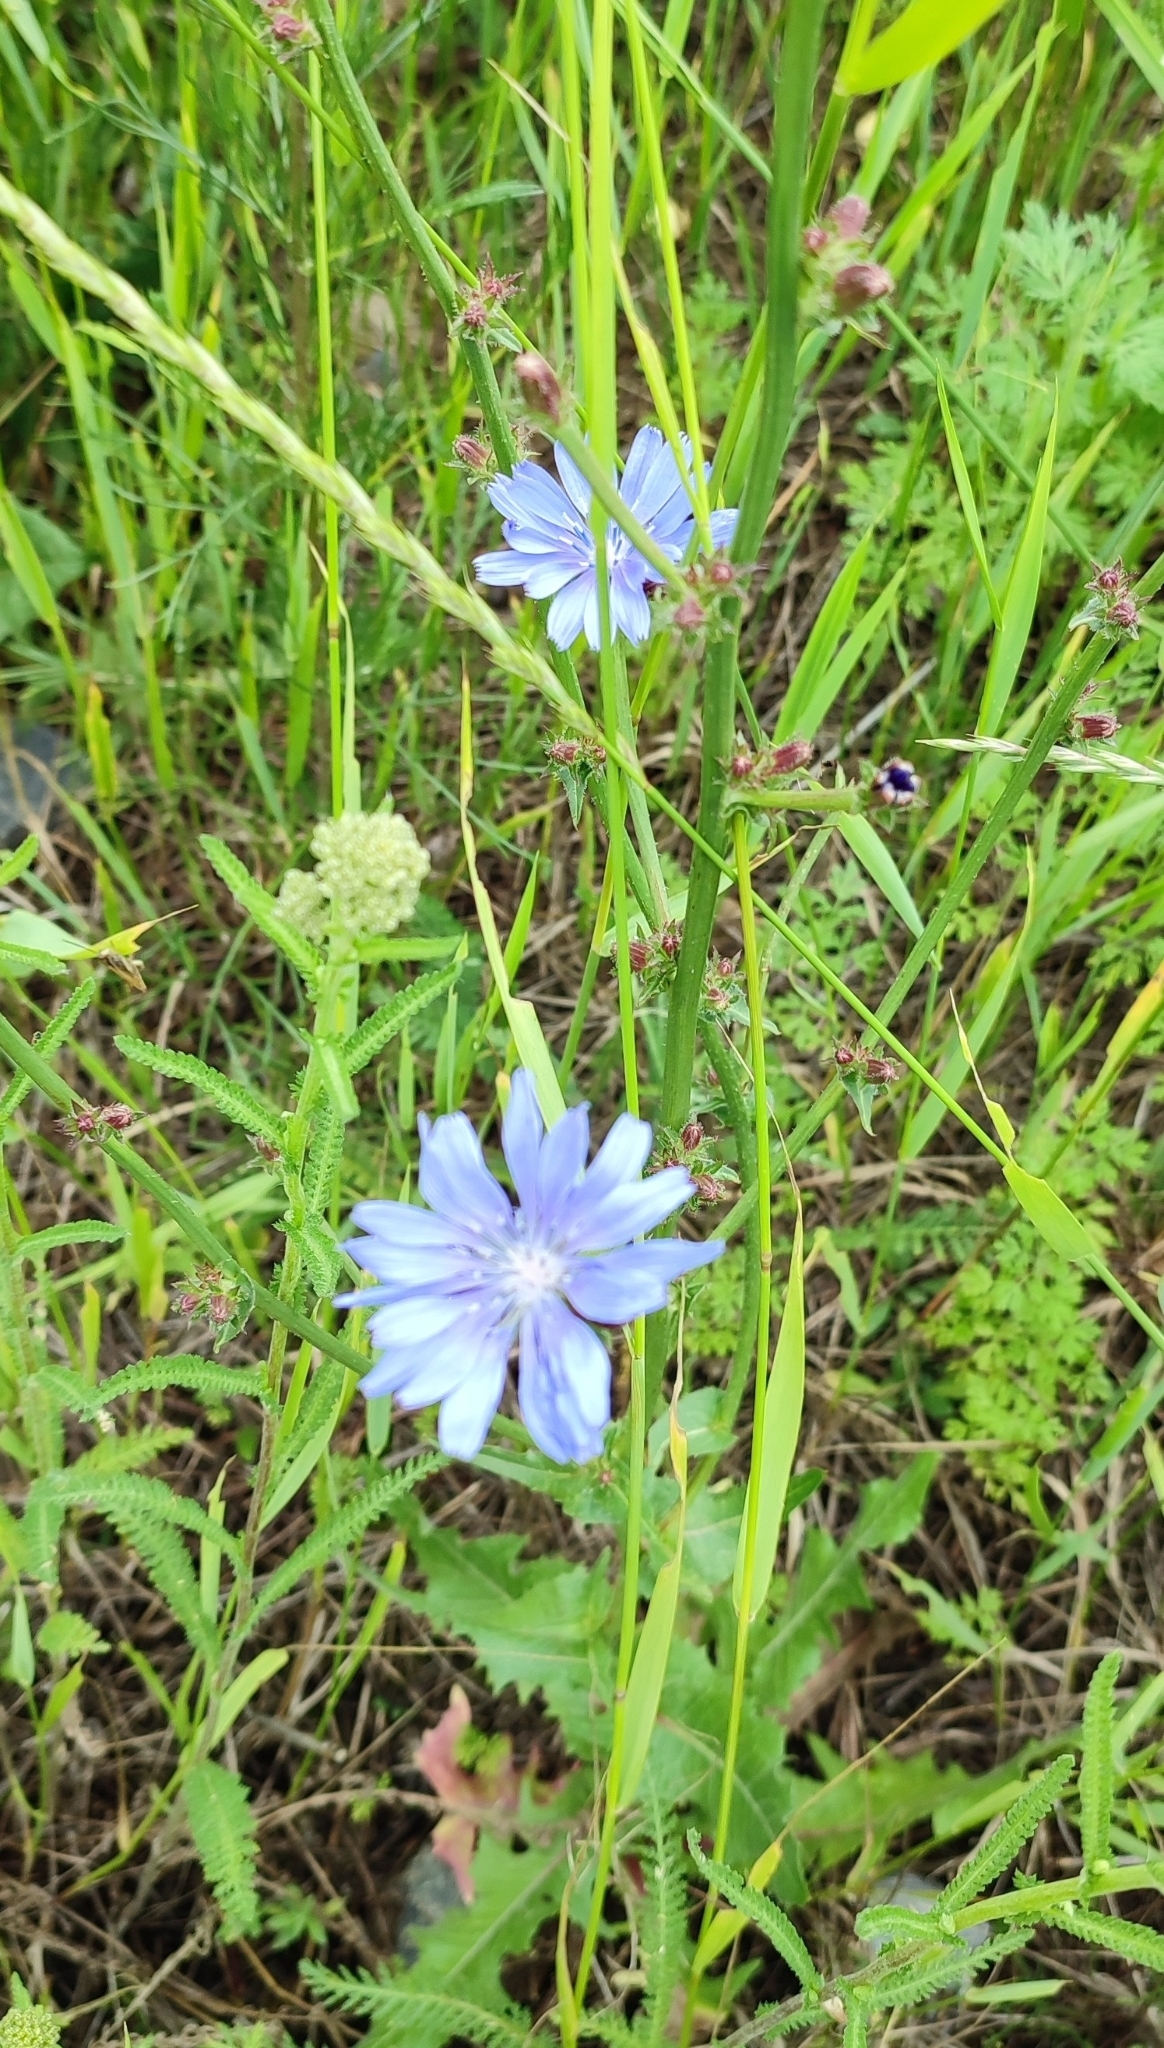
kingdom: Plantae
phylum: Tracheophyta
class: Magnoliopsida
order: Asterales
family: Asteraceae
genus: Cichorium
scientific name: Cichorium intybus
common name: Chicory
